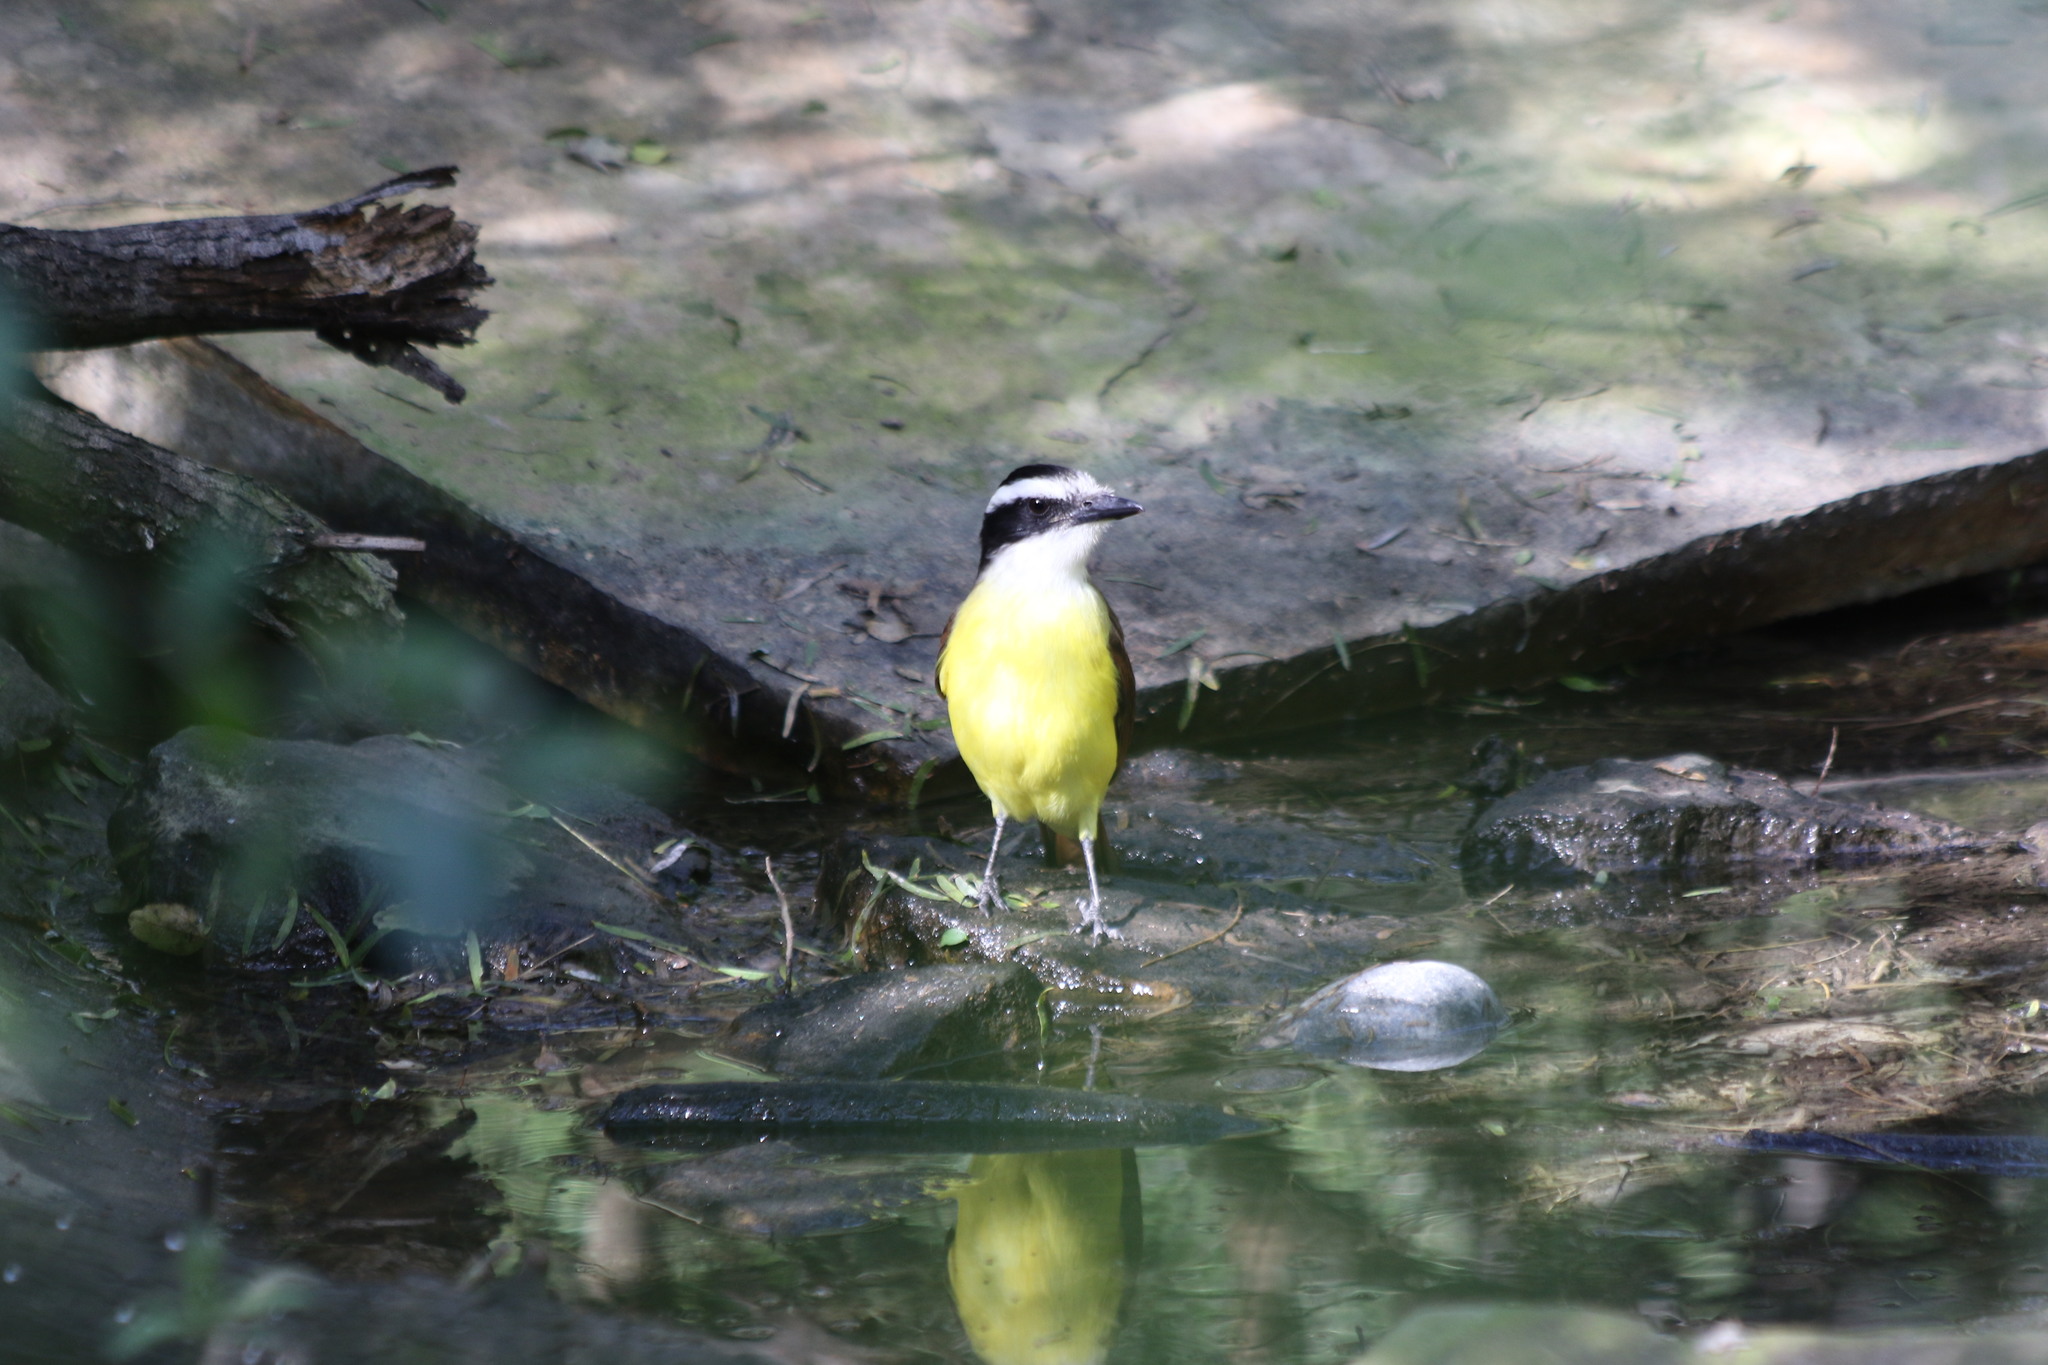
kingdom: Animalia
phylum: Chordata
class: Aves
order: Passeriformes
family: Tyrannidae
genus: Pitangus
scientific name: Pitangus sulphuratus
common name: Great kiskadee
